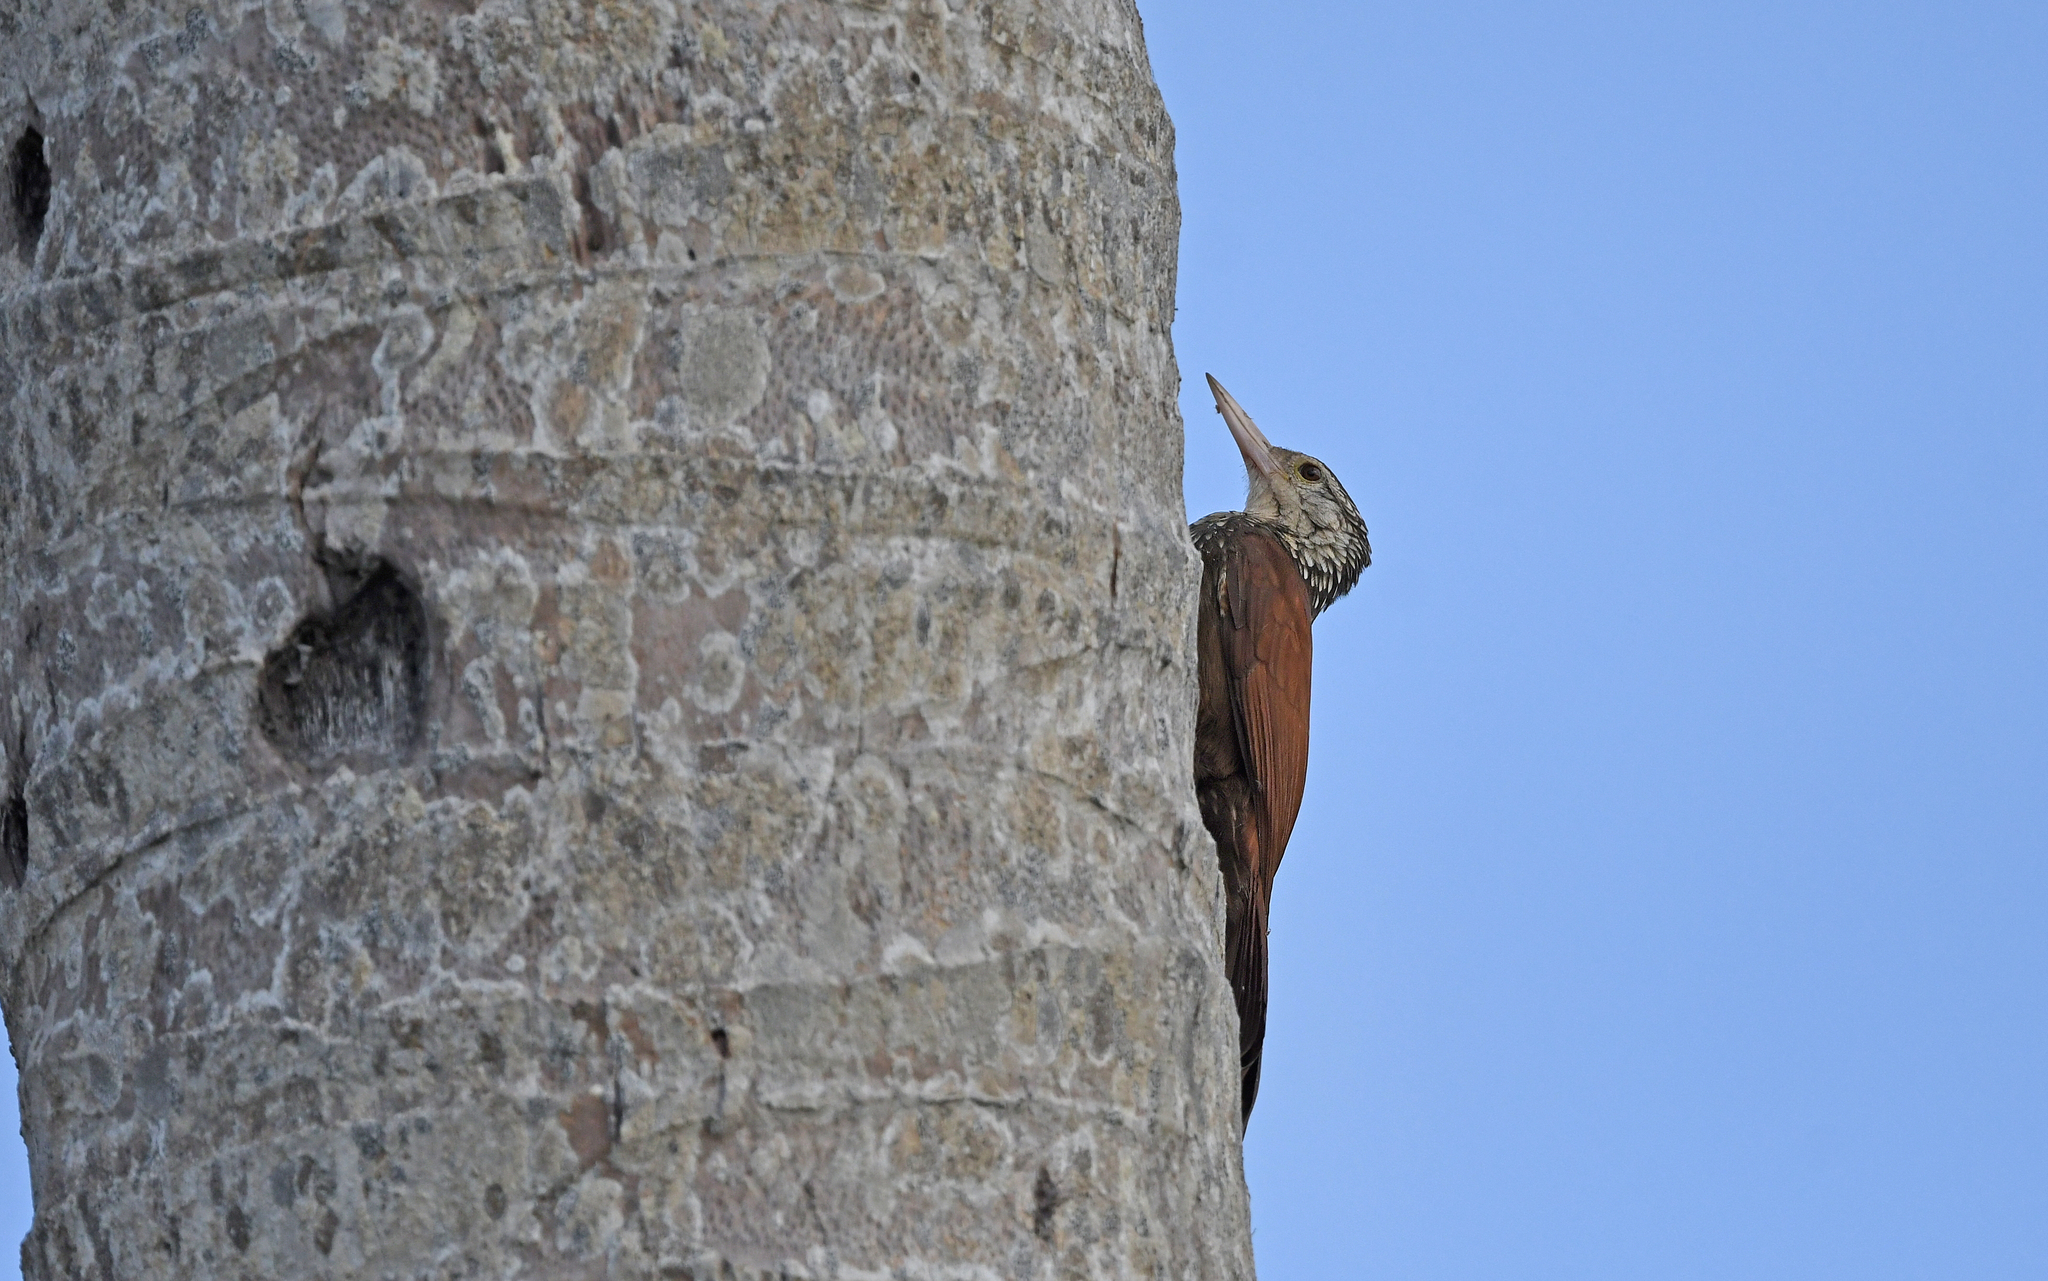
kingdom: Animalia
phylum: Chordata
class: Aves
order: Passeriformes
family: Furnariidae
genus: Xiphorhynchus
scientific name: Xiphorhynchus picus
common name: Straight-billed woodcreeper
